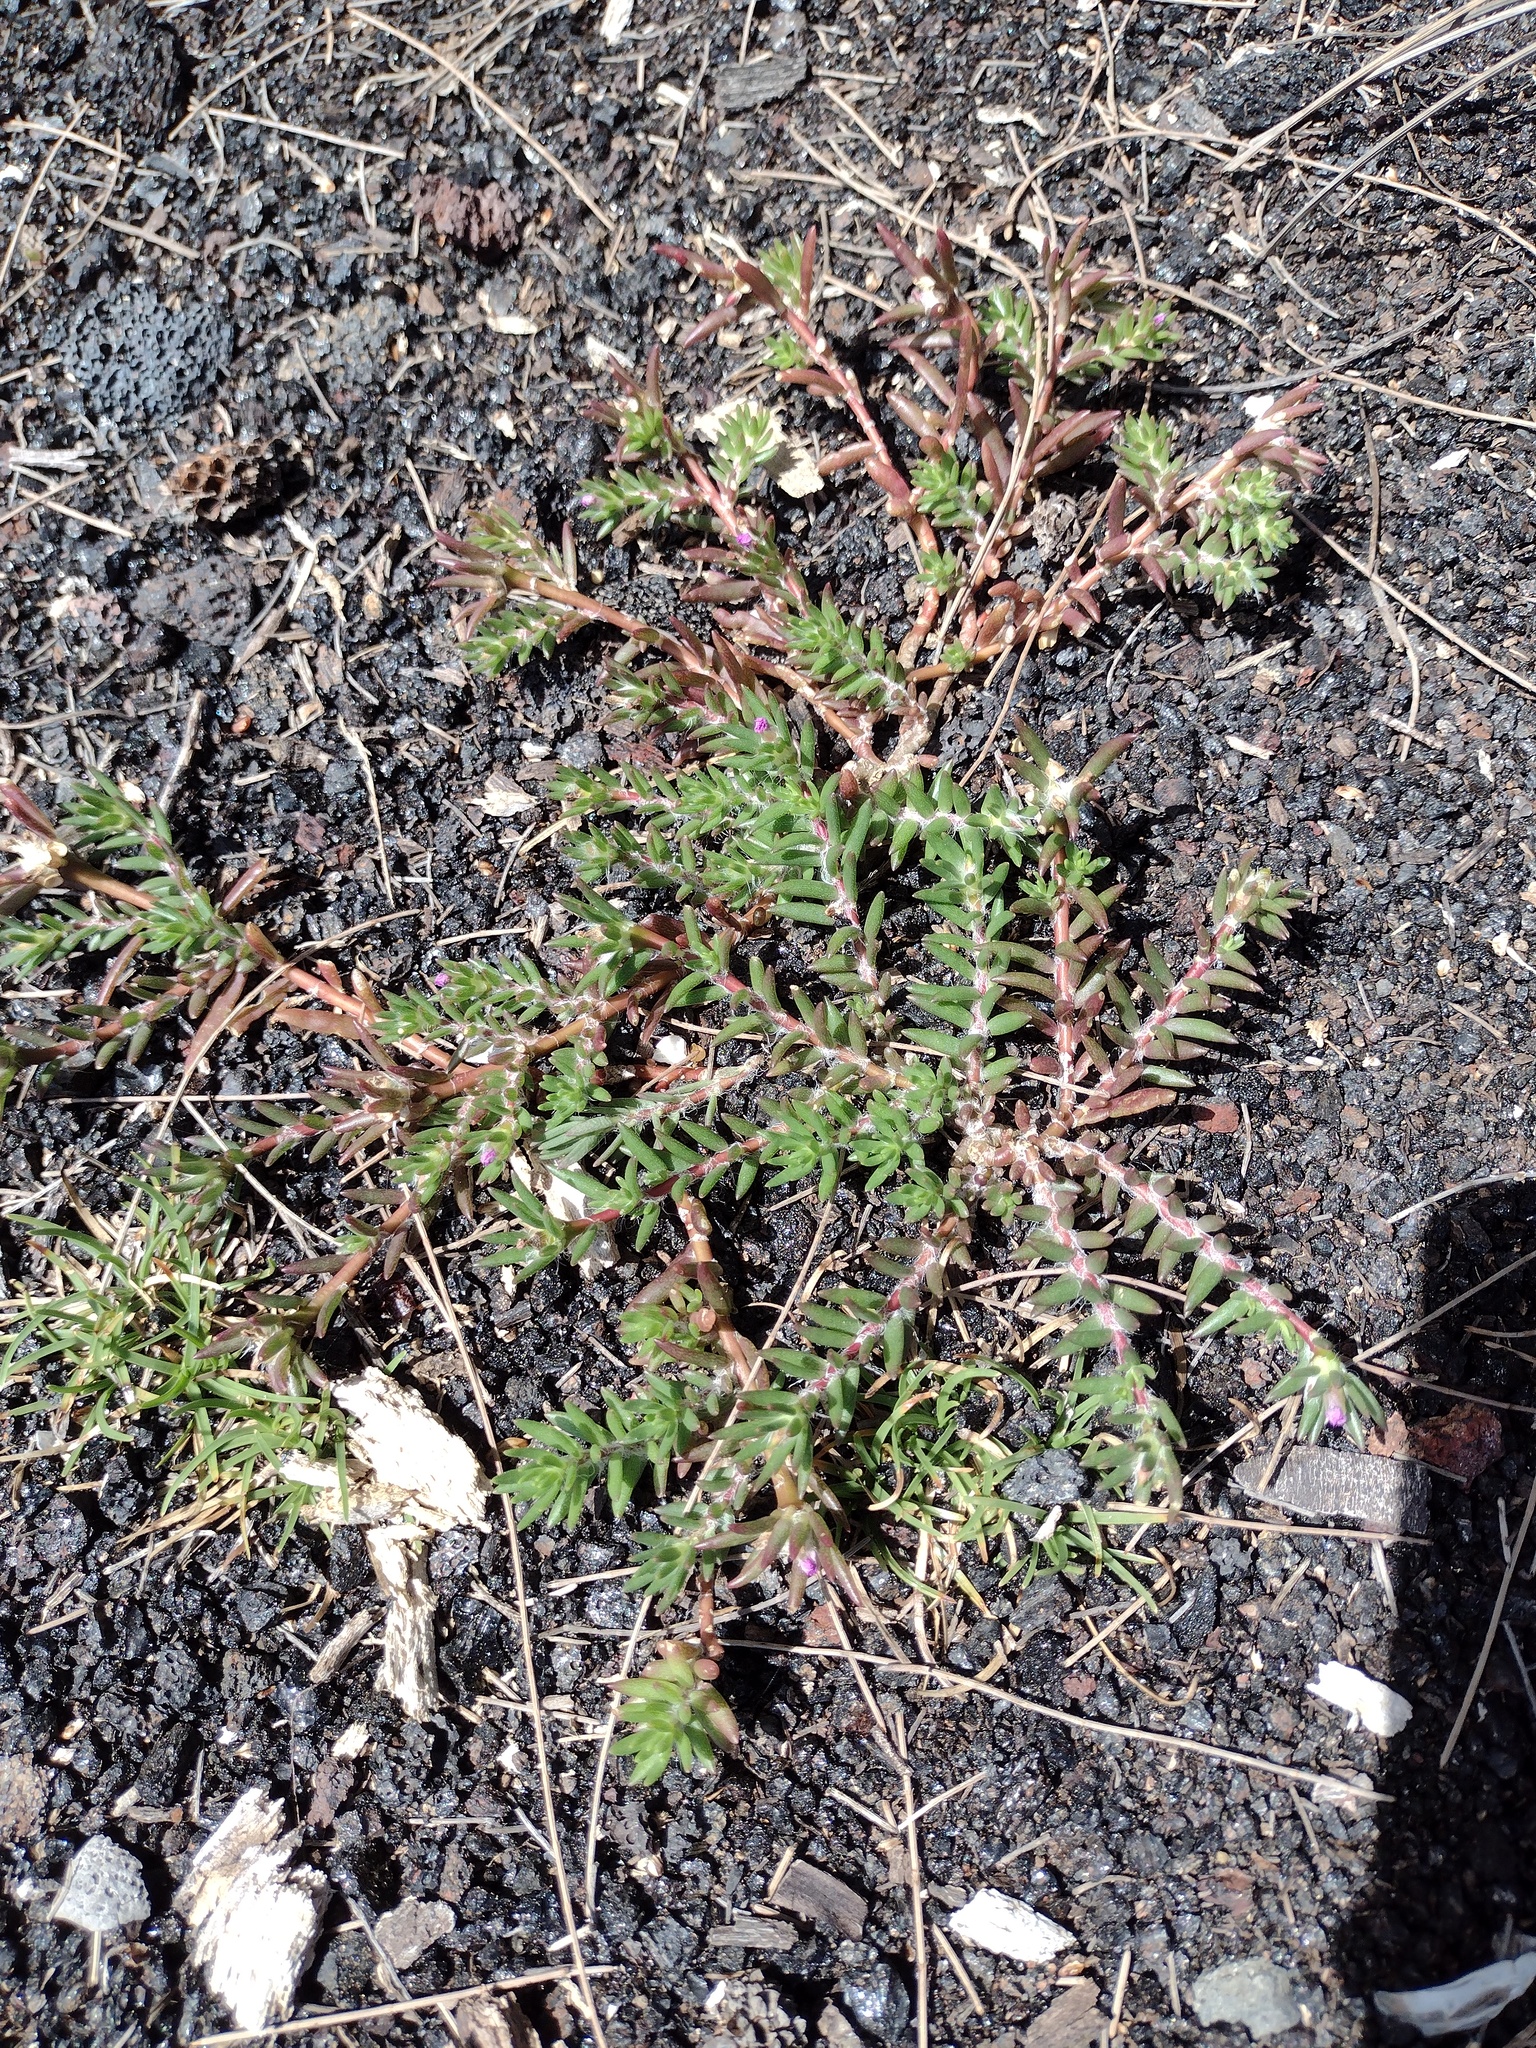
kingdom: Plantae
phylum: Tracheophyta
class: Magnoliopsida
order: Caryophyllales
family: Portulacaceae
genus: Portulaca
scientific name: Portulaca pilosa
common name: Kiss me quick
